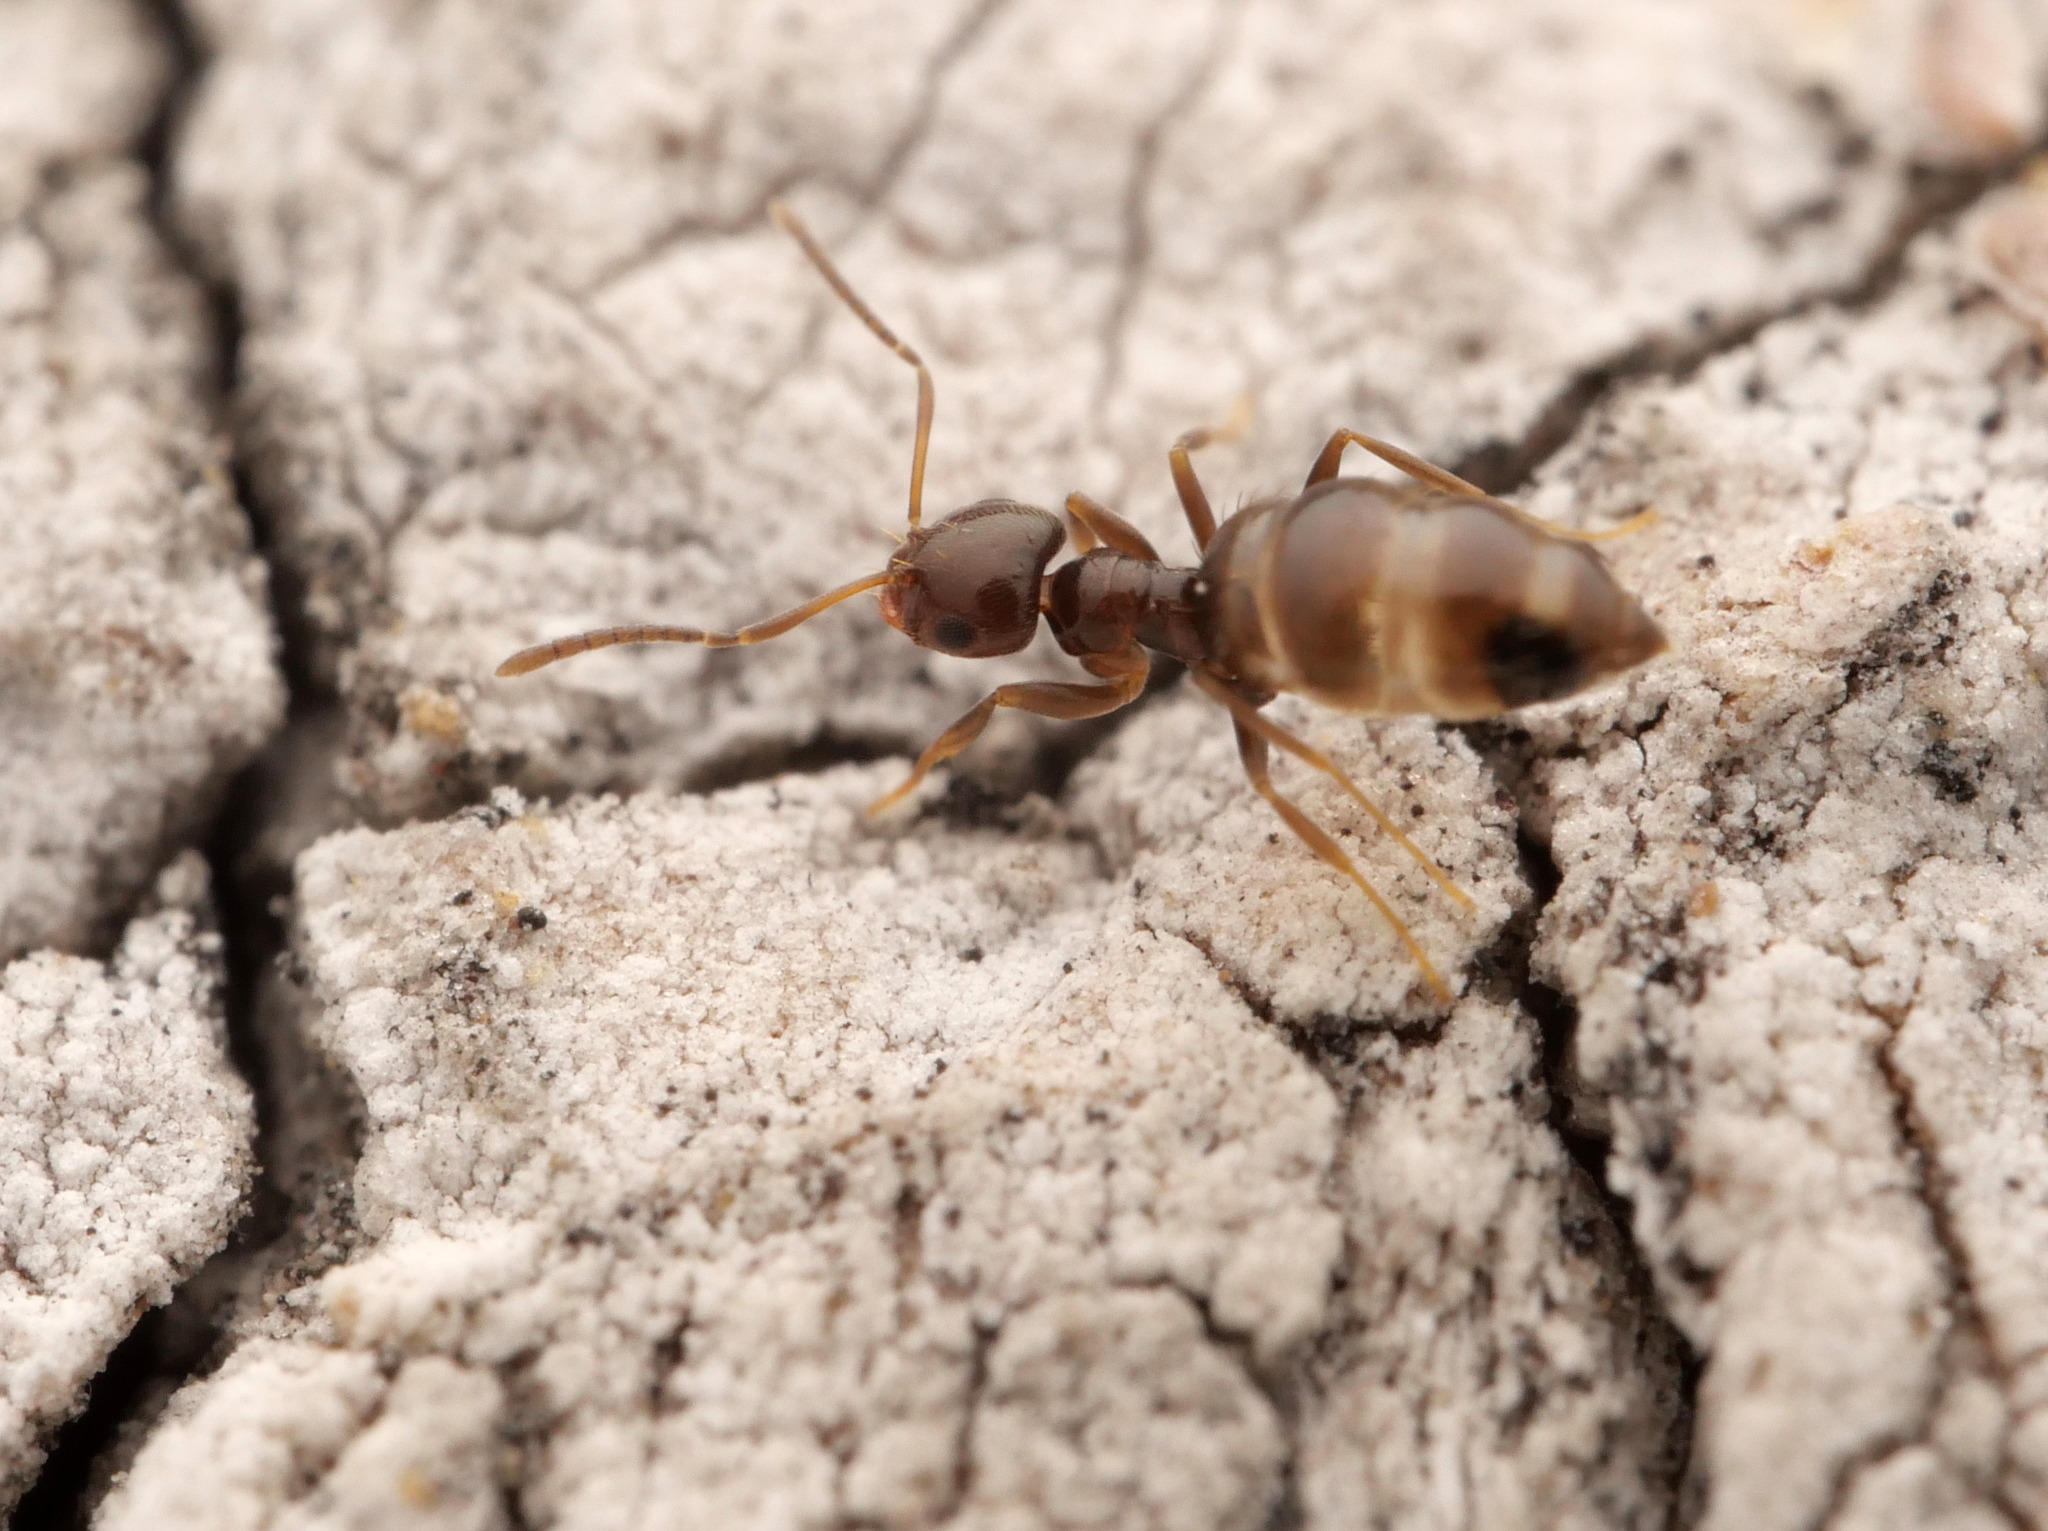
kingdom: Animalia
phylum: Arthropoda
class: Insecta
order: Hymenoptera
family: Formicidae
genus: Brachymyrmex
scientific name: Brachymyrmex patagonicus
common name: Dark rover ant
